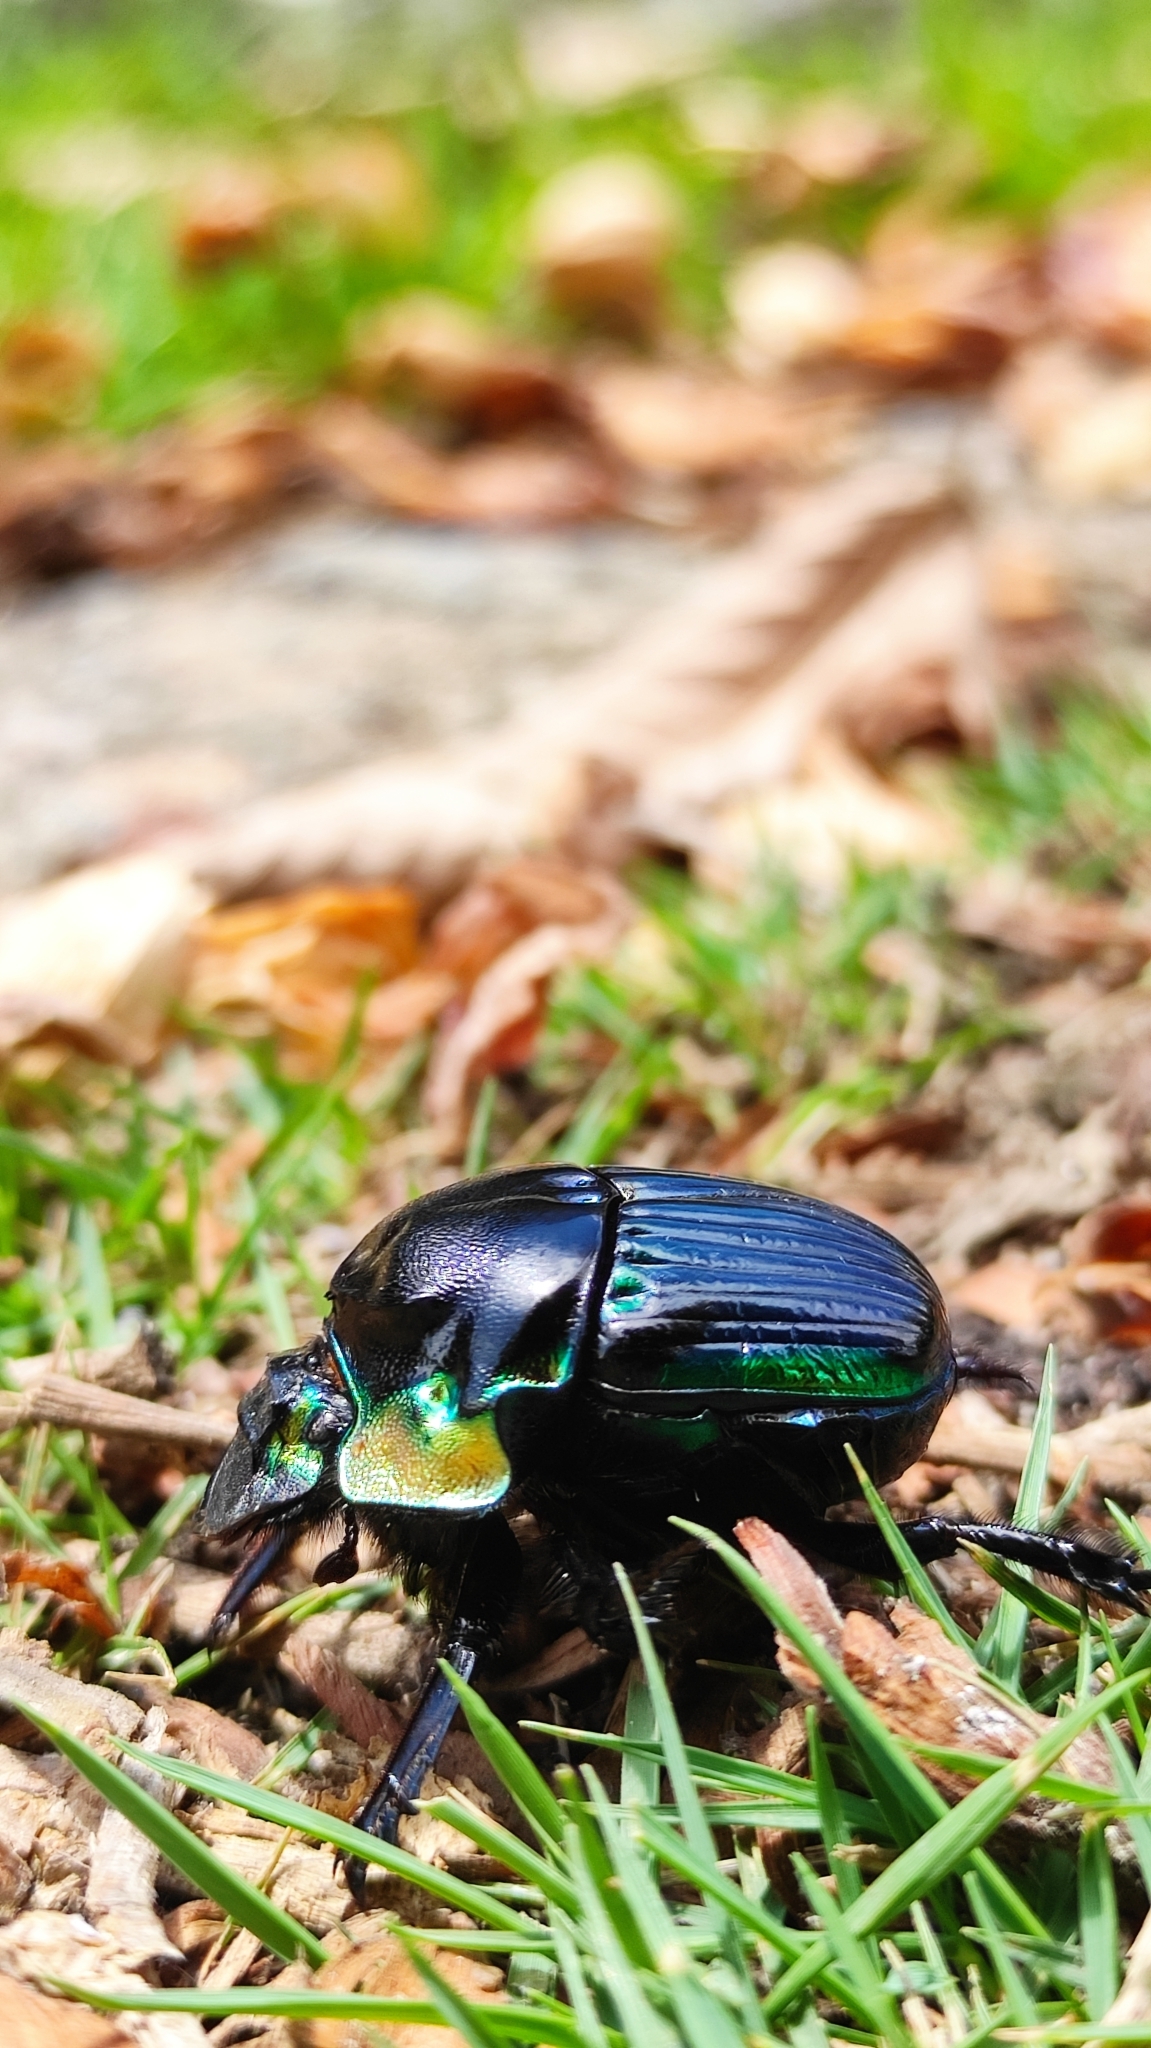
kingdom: Animalia
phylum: Arthropoda
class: Insecta
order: Coleoptera
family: Scarabaeidae
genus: Diabroctis
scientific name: Diabroctis mimas
